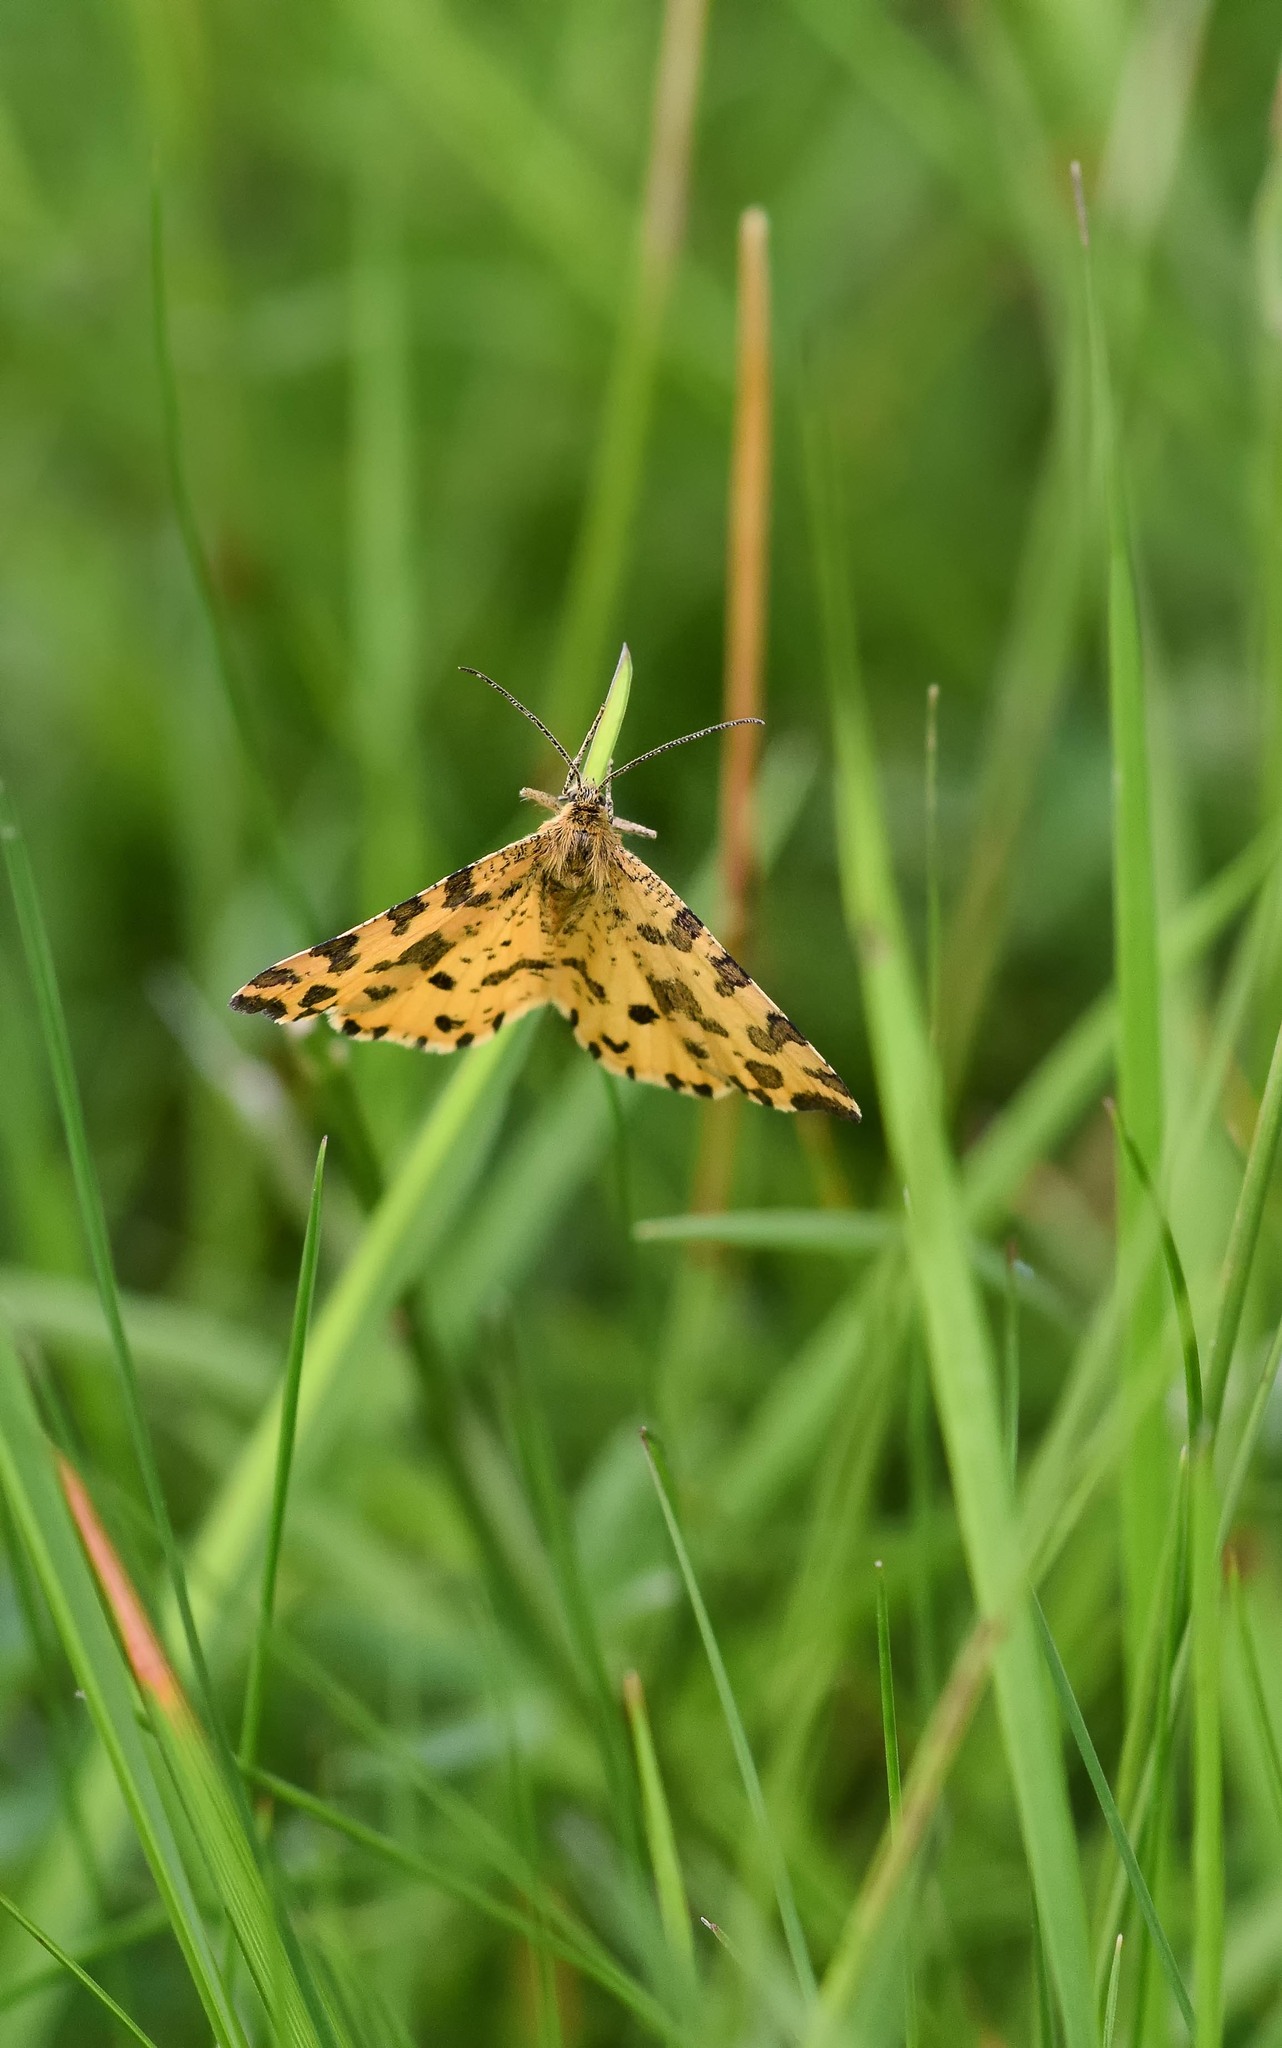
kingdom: Animalia
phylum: Arthropoda
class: Insecta
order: Lepidoptera
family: Geometridae
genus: Pseudopanthera
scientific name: Pseudopanthera macularia
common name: Speckled yellow
